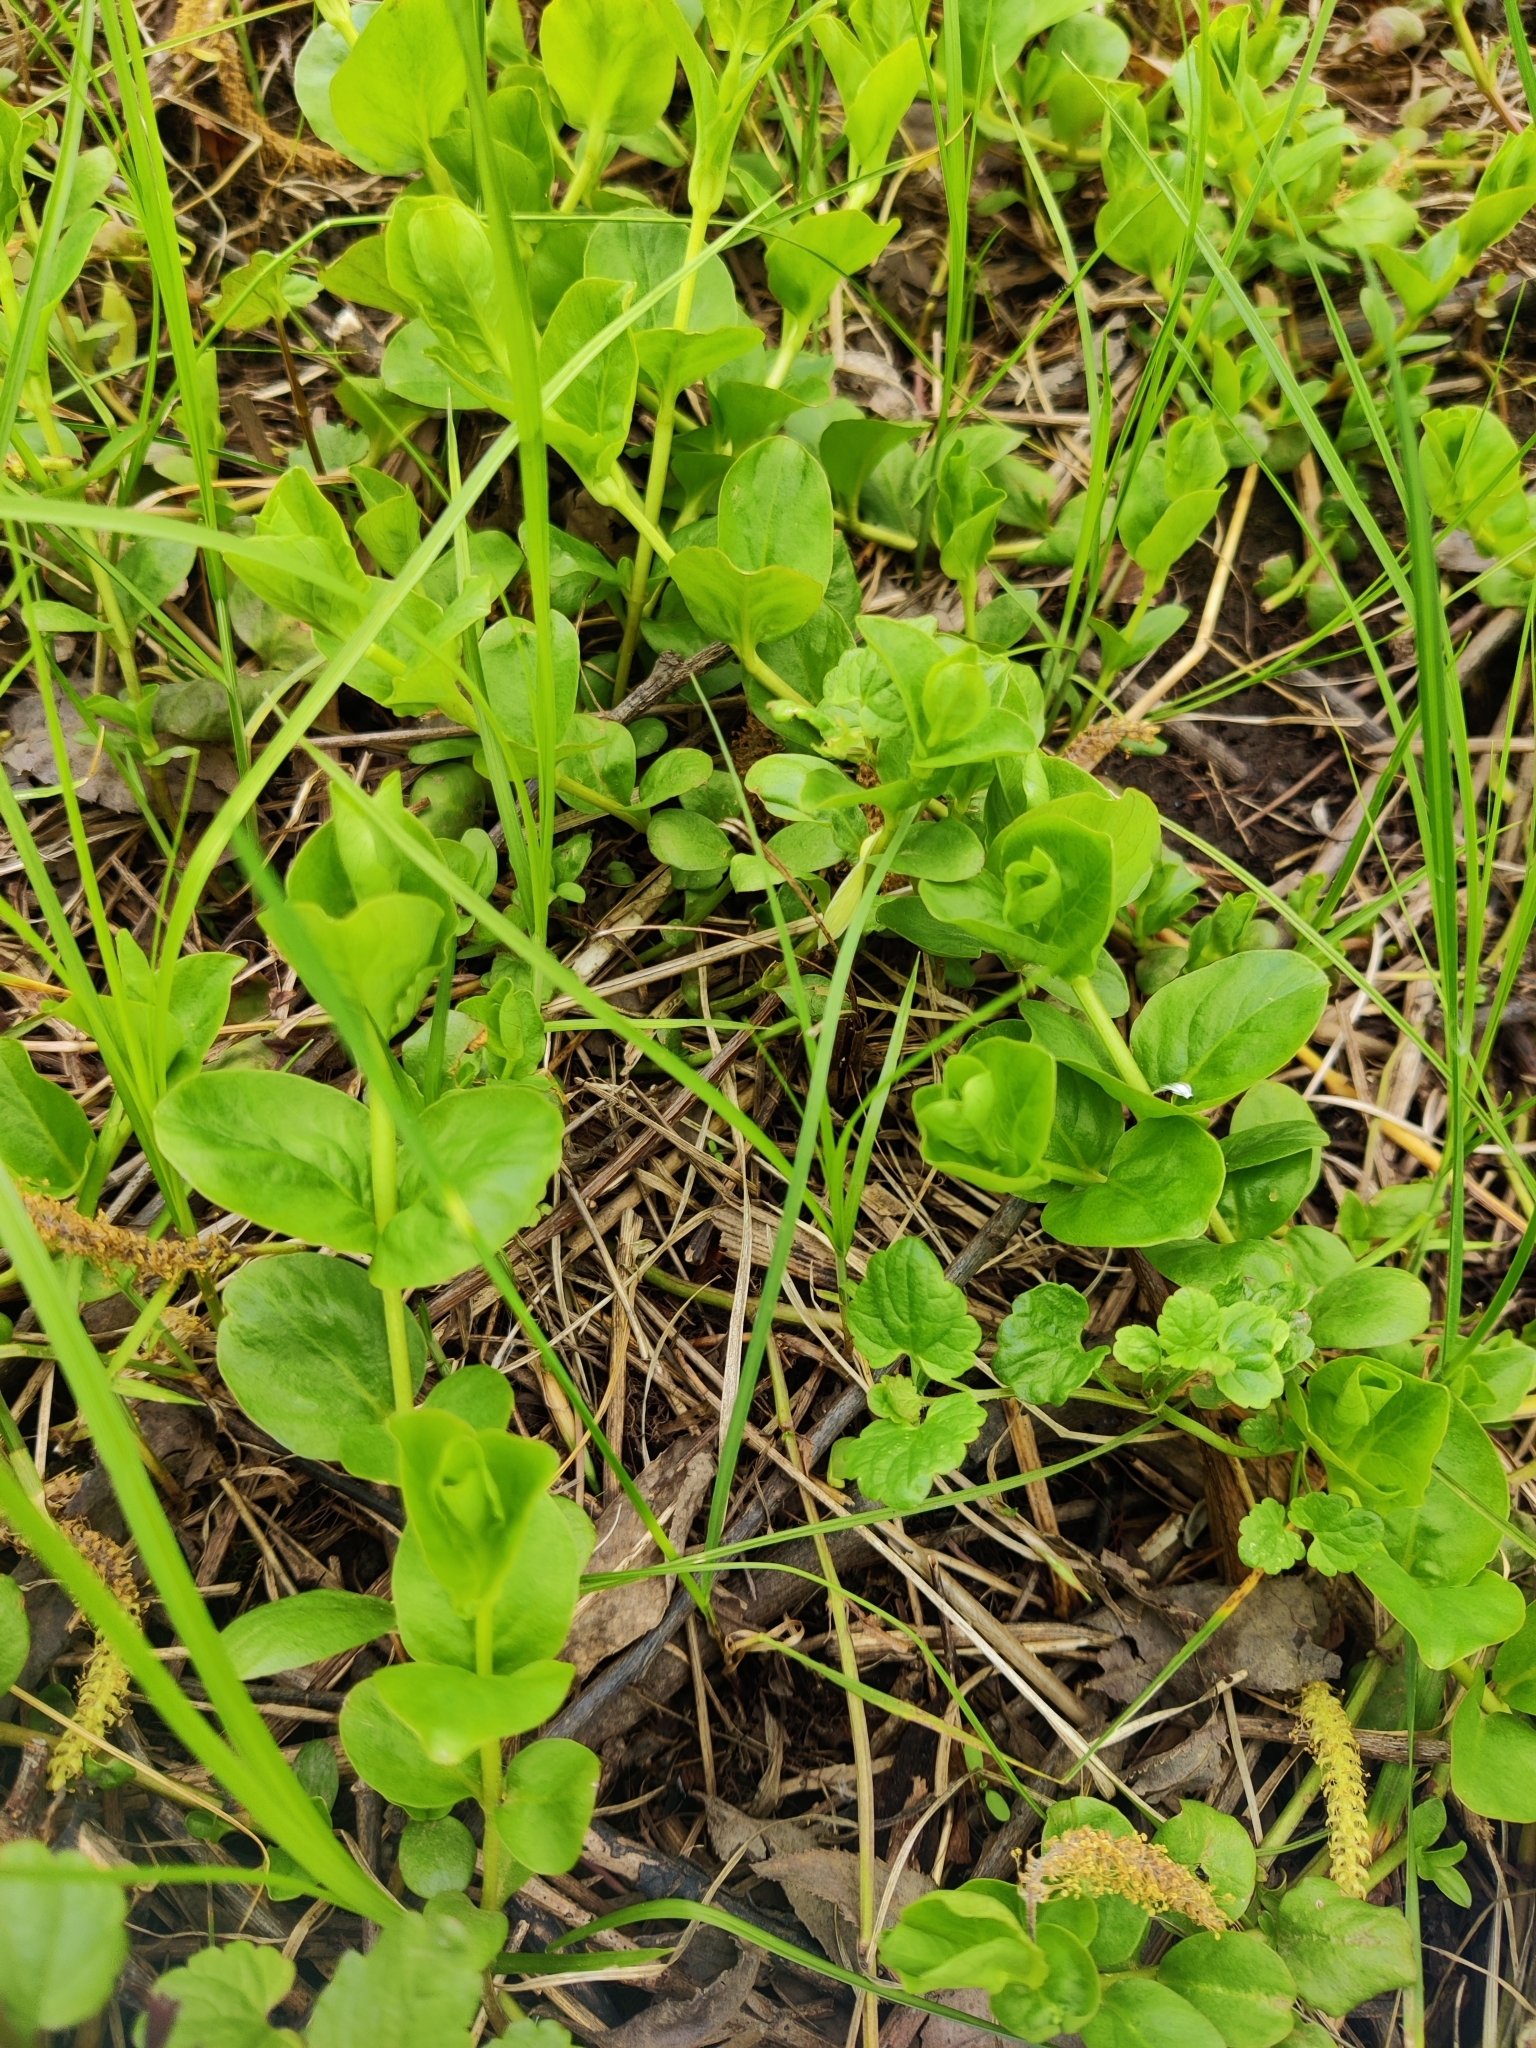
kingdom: Plantae
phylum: Tracheophyta
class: Magnoliopsida
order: Ericales
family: Primulaceae
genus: Lysimachia
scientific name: Lysimachia nummularia
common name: Moneywort
